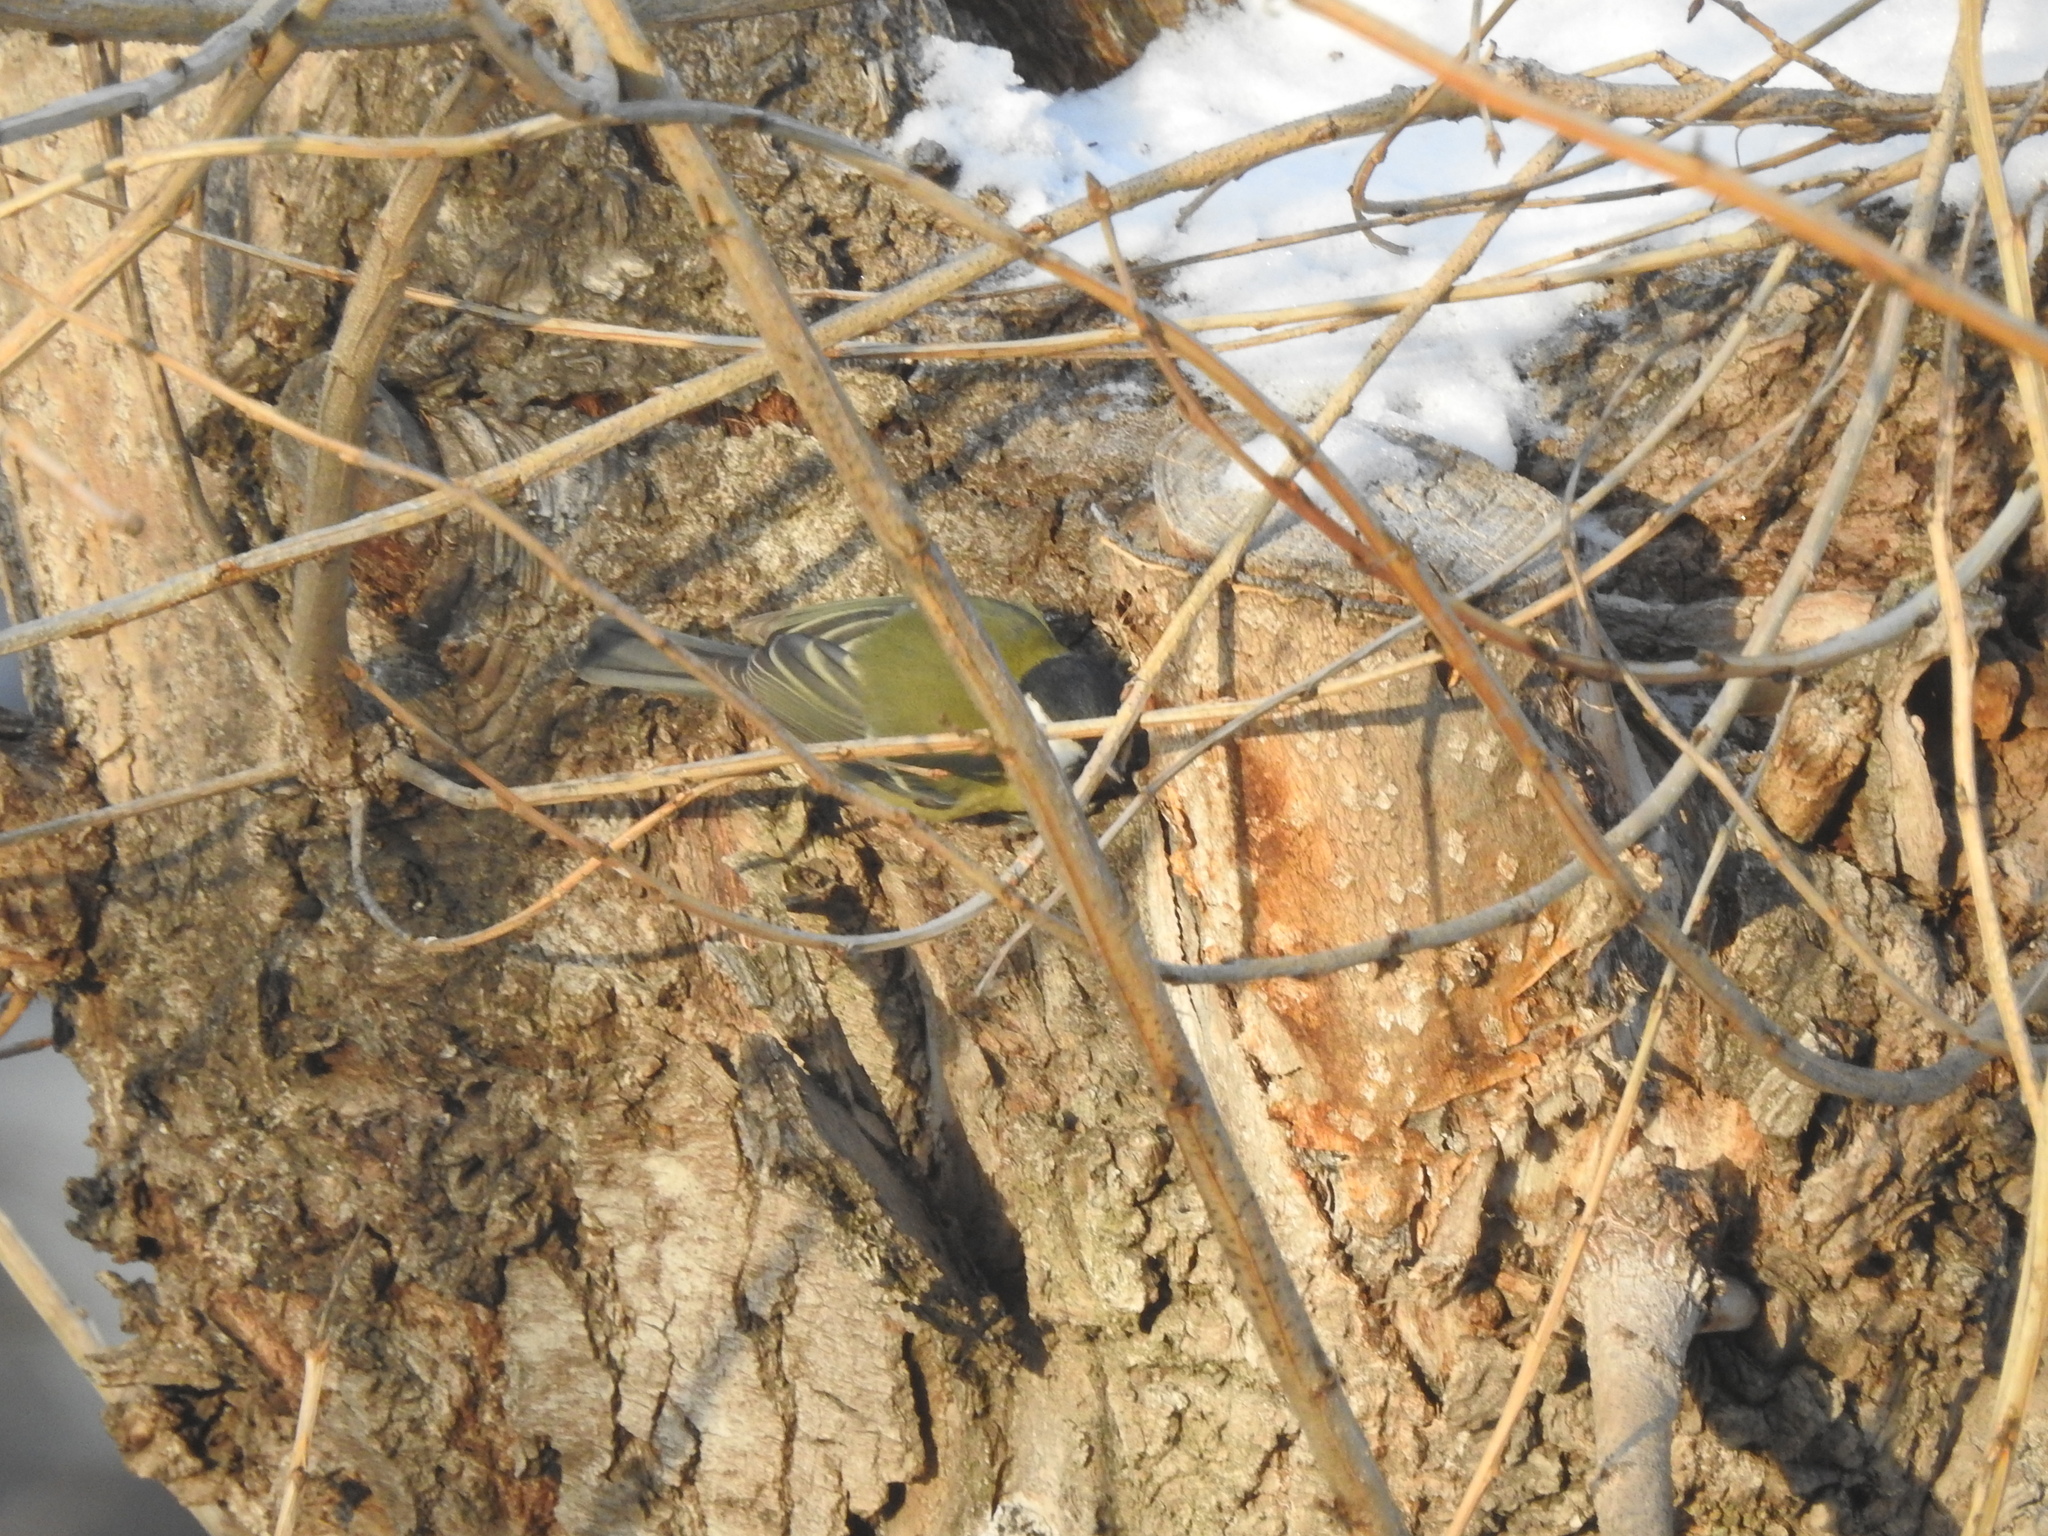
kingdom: Animalia
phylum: Chordata
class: Aves
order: Passeriformes
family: Paridae
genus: Parus
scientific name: Parus major
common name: Great tit
